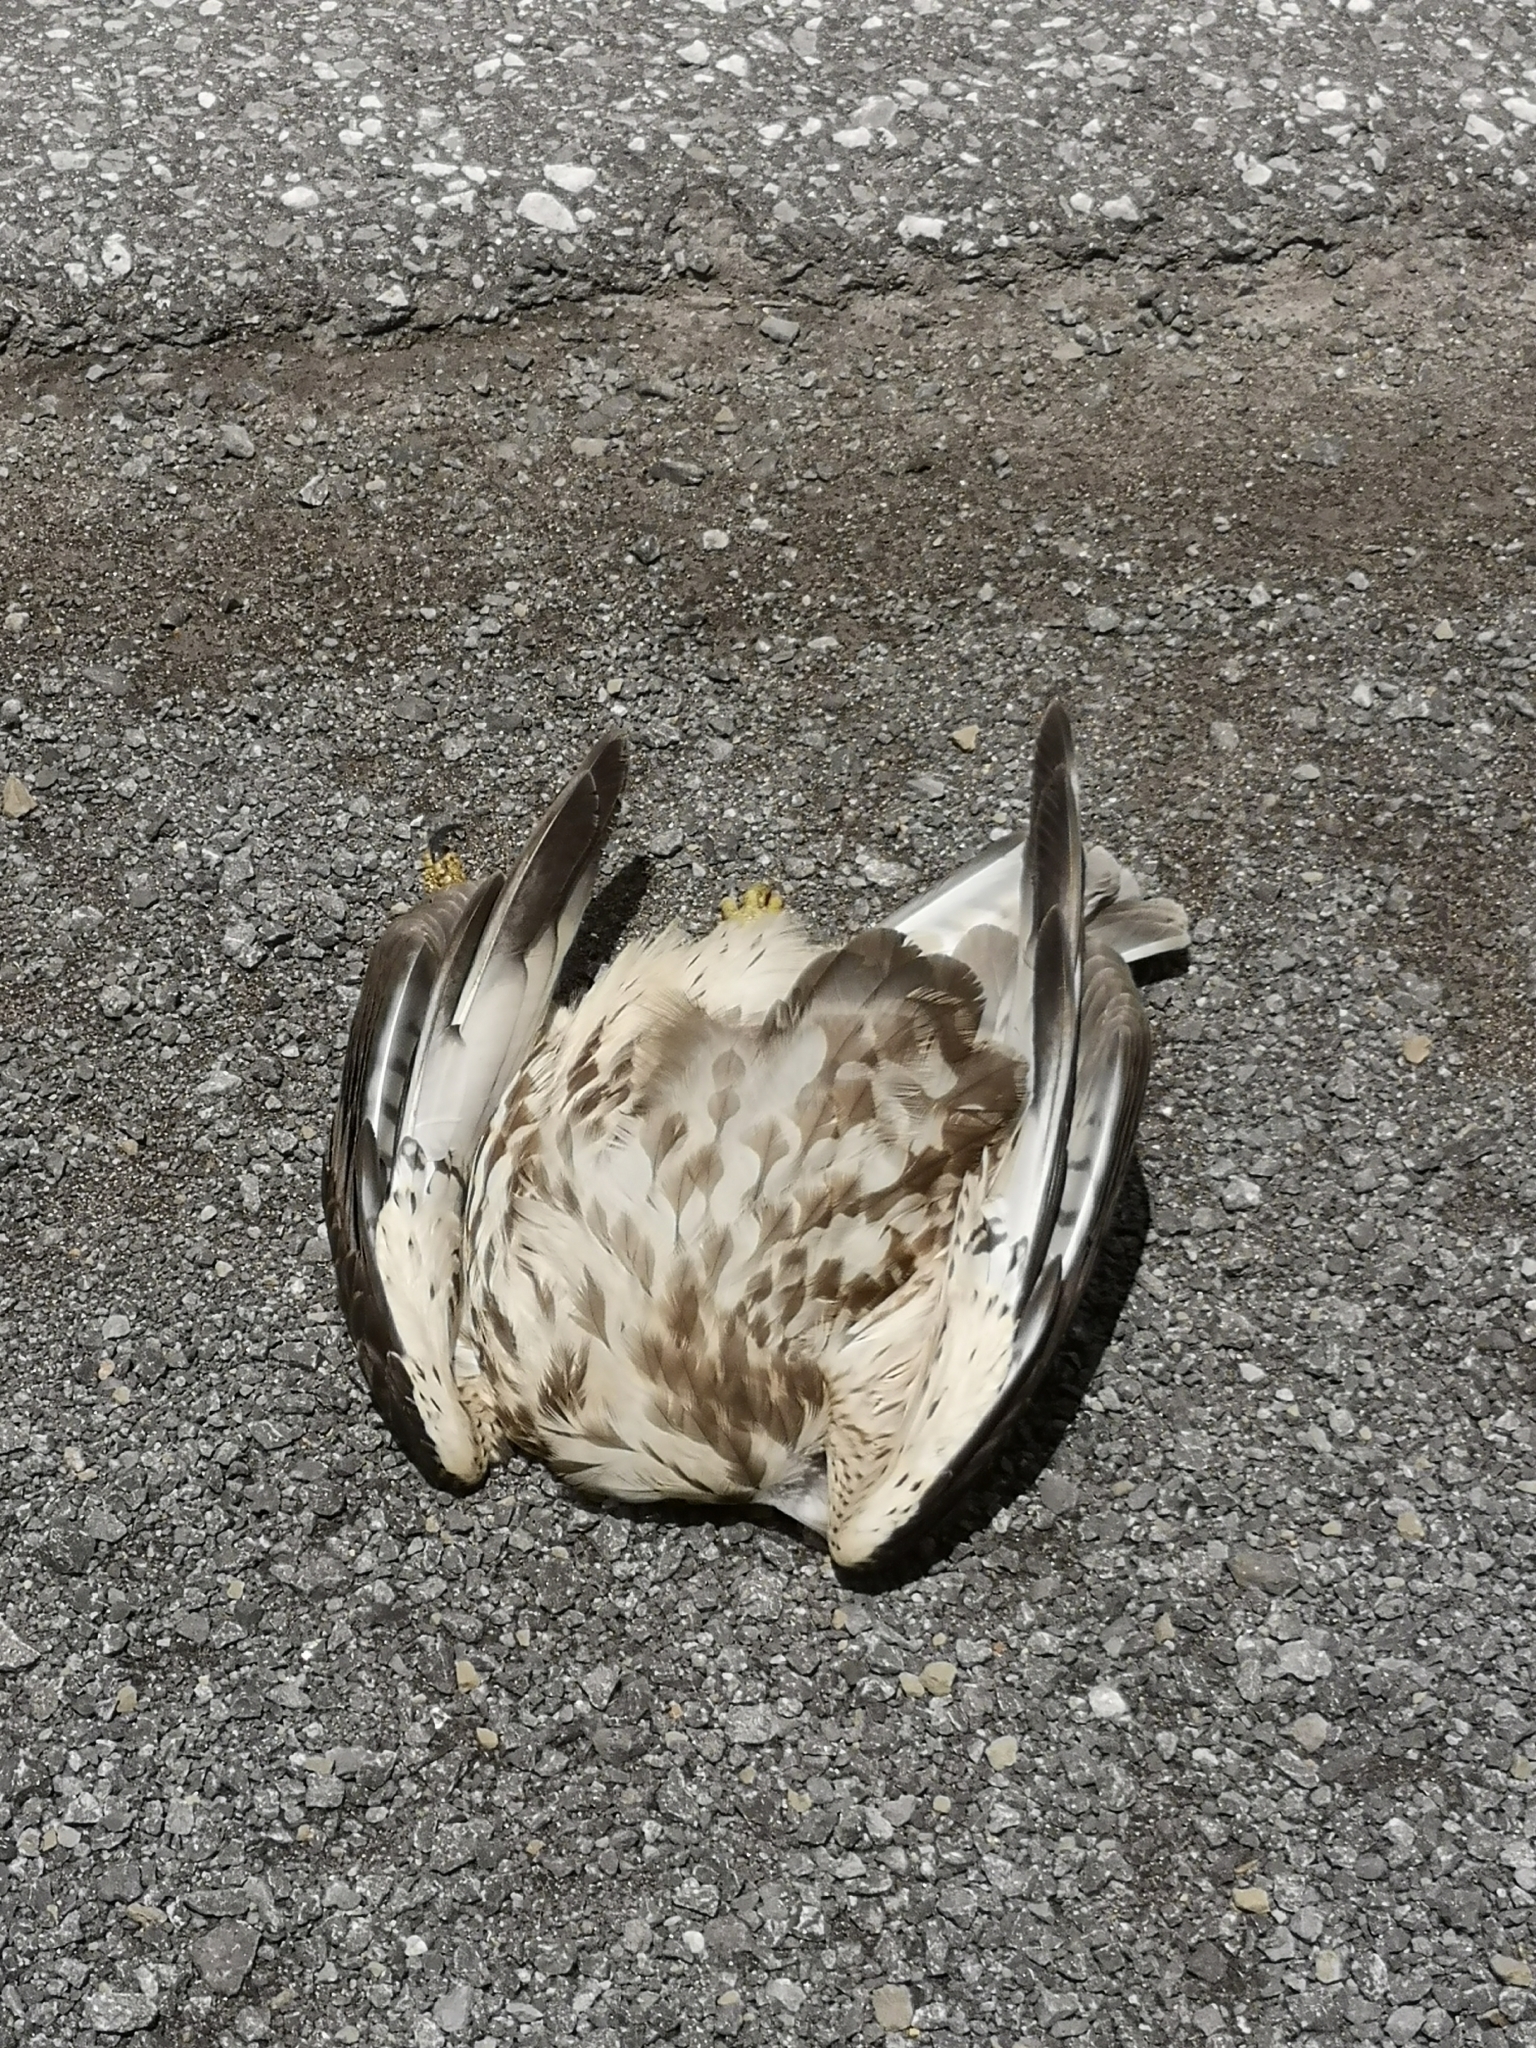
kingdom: Animalia
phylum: Chordata
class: Aves
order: Accipitriformes
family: Accipitridae
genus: Buteo
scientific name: Buteo platypterus
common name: Broad-winged hawk
